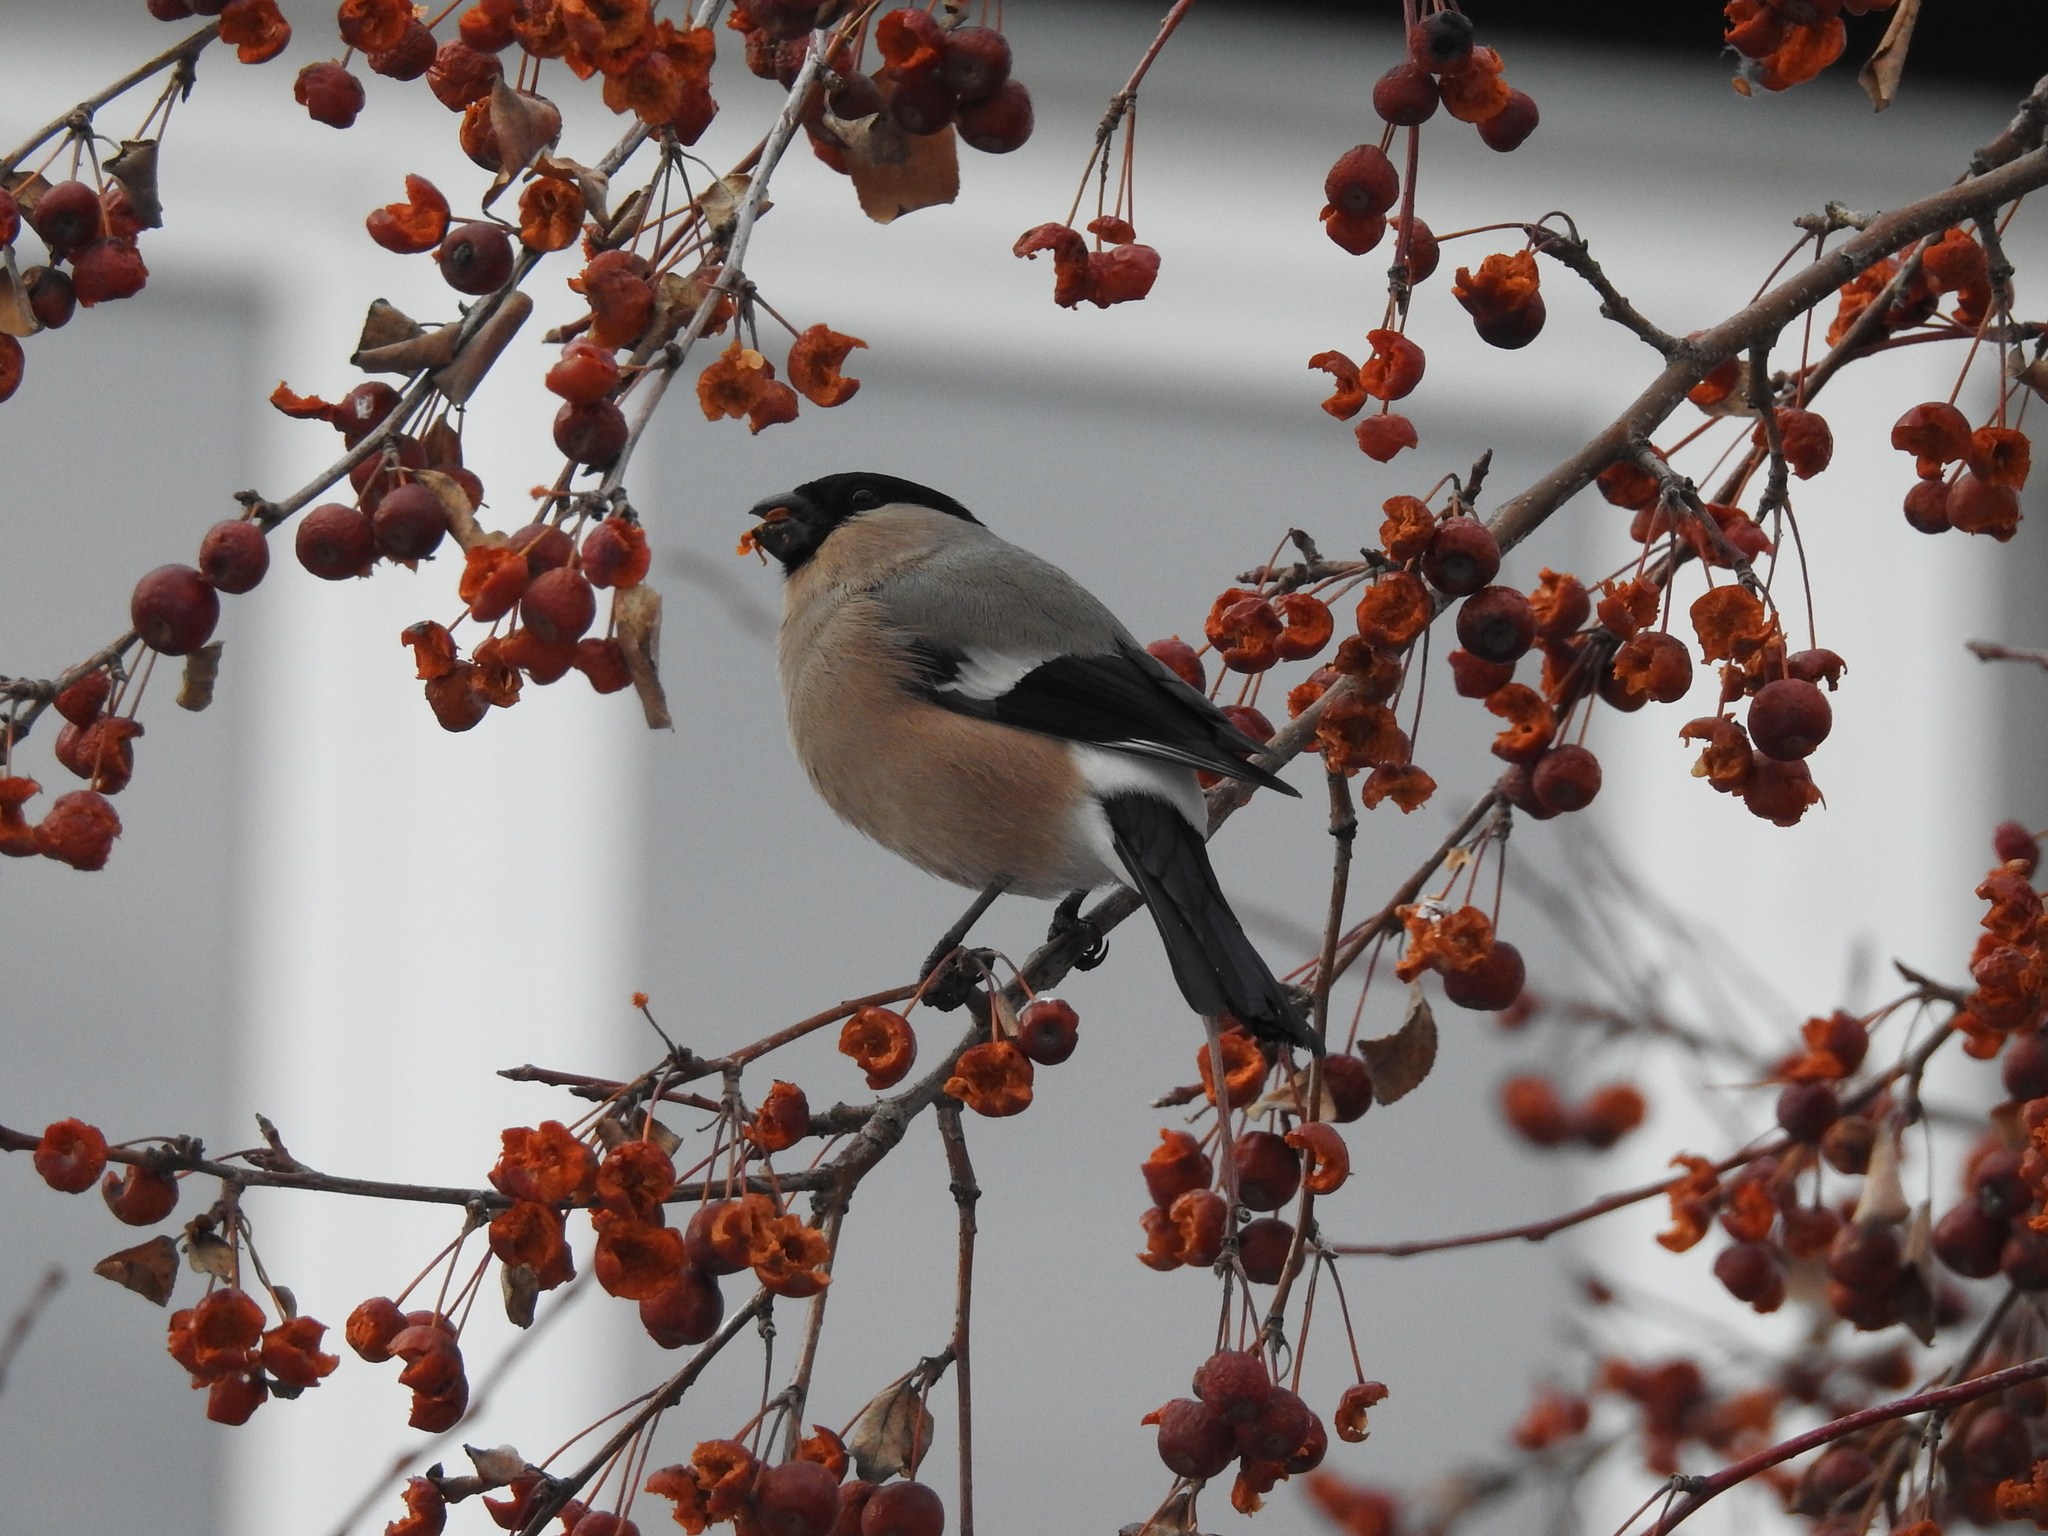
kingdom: Animalia
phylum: Chordata
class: Aves
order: Passeriformes
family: Fringillidae
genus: Pyrrhula
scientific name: Pyrrhula pyrrhula
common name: Eurasian bullfinch
